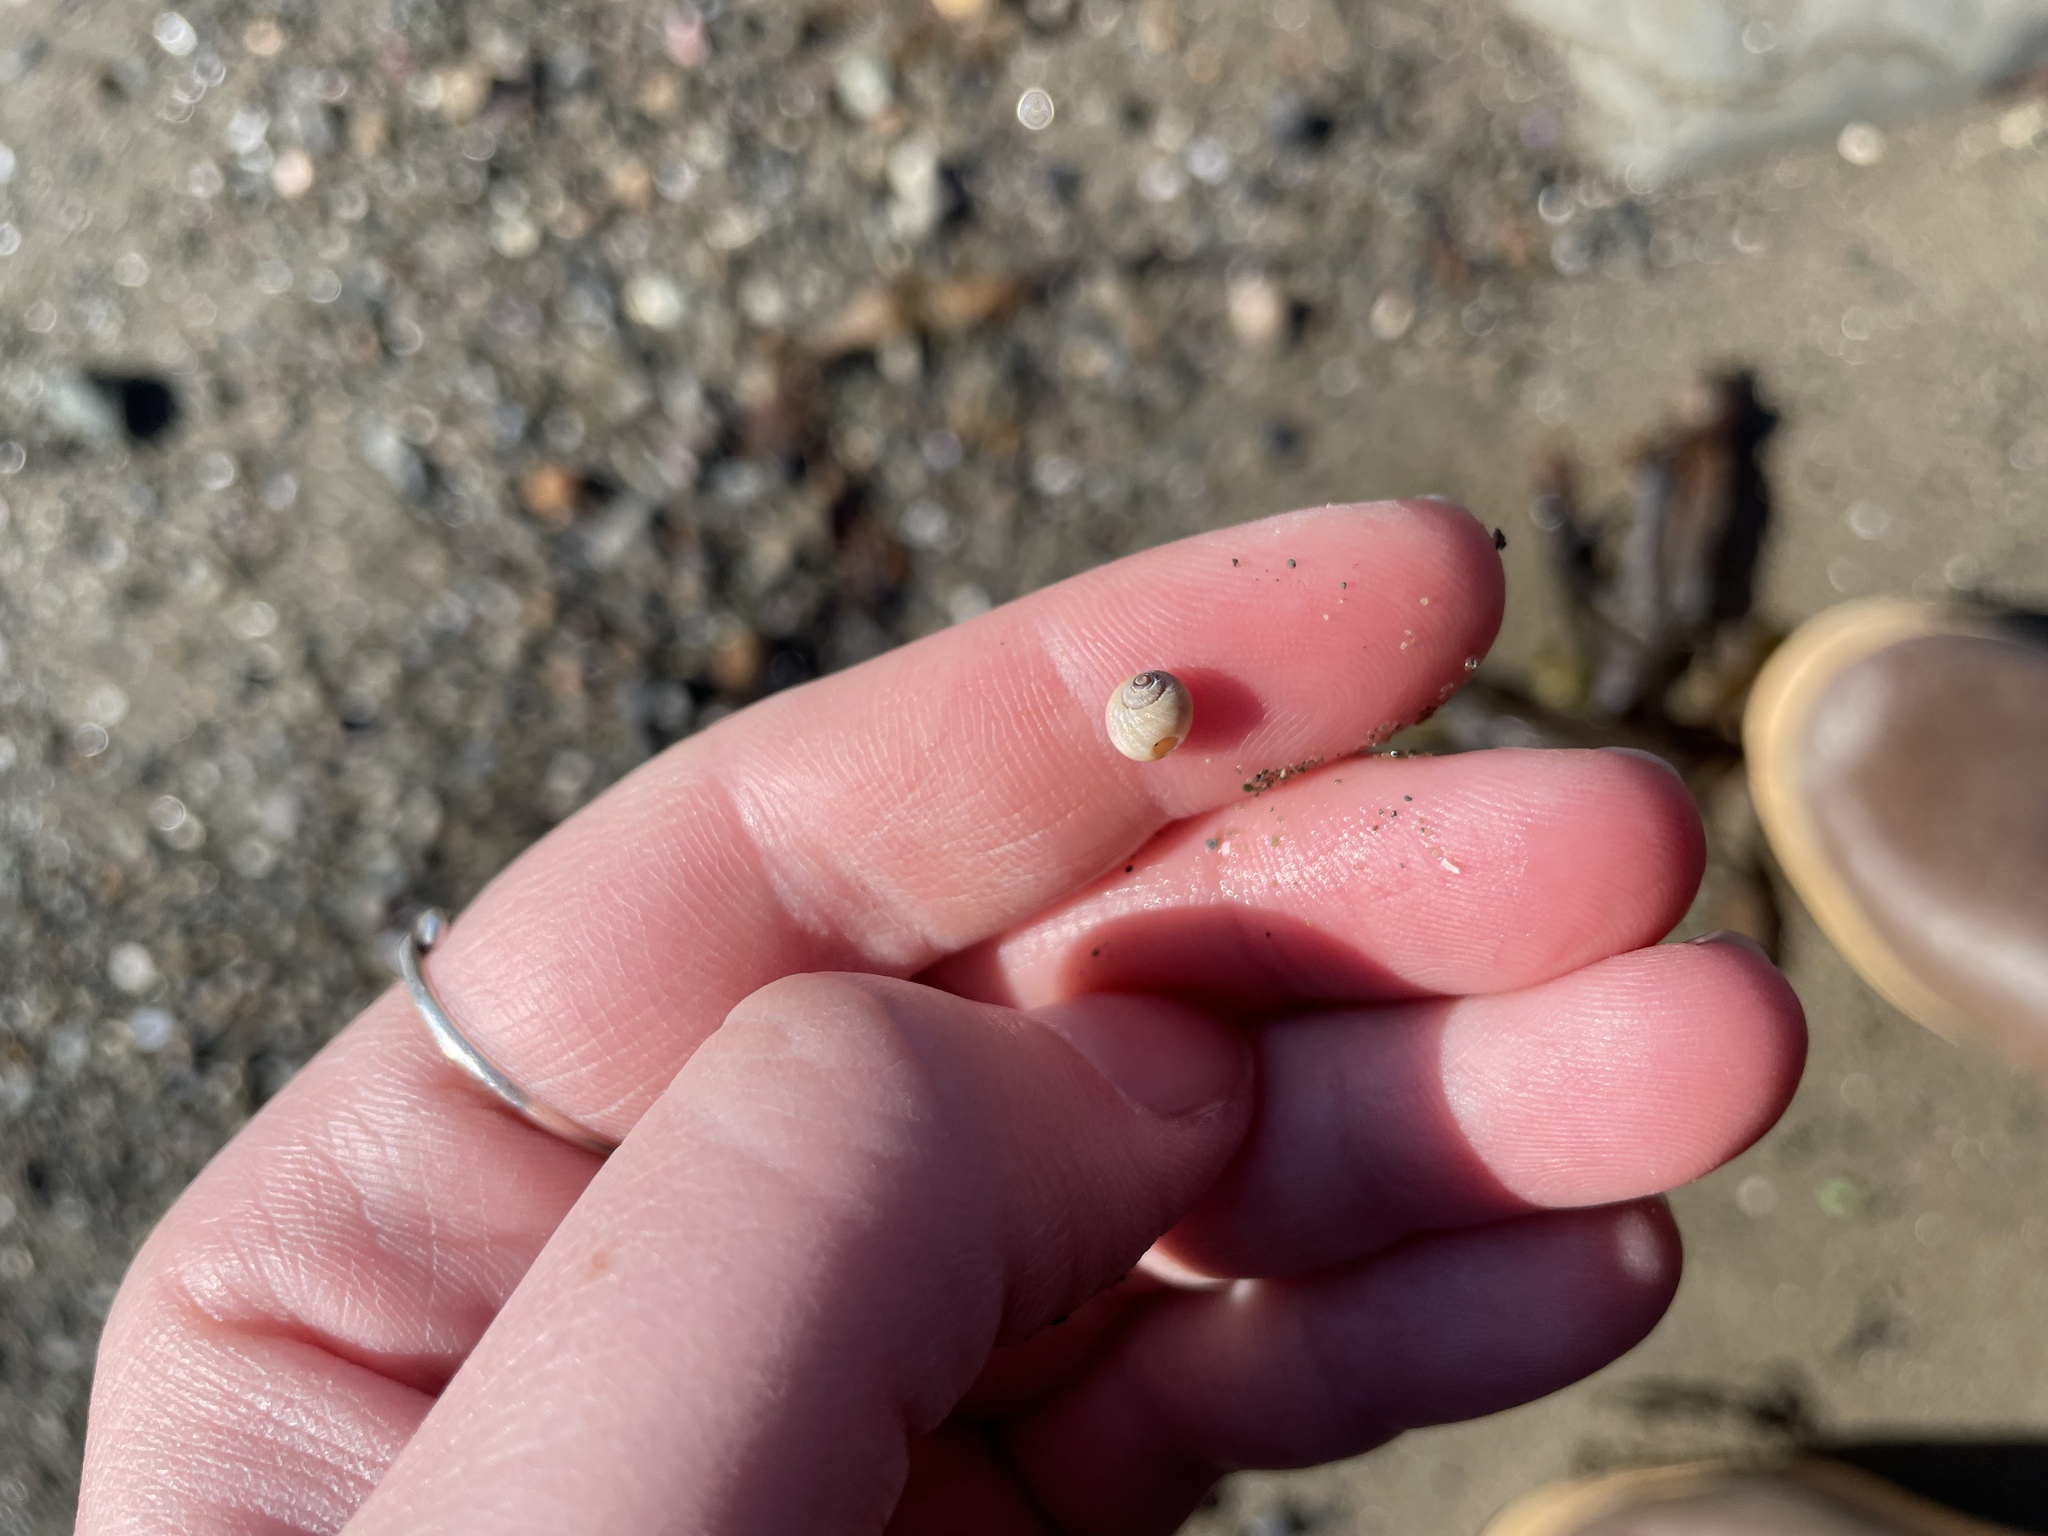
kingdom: Animalia
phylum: Mollusca
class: Gastropoda
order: Littorinimorpha
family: Naticidae
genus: Euspira
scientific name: Euspira heros
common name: Common northern moonsnail
